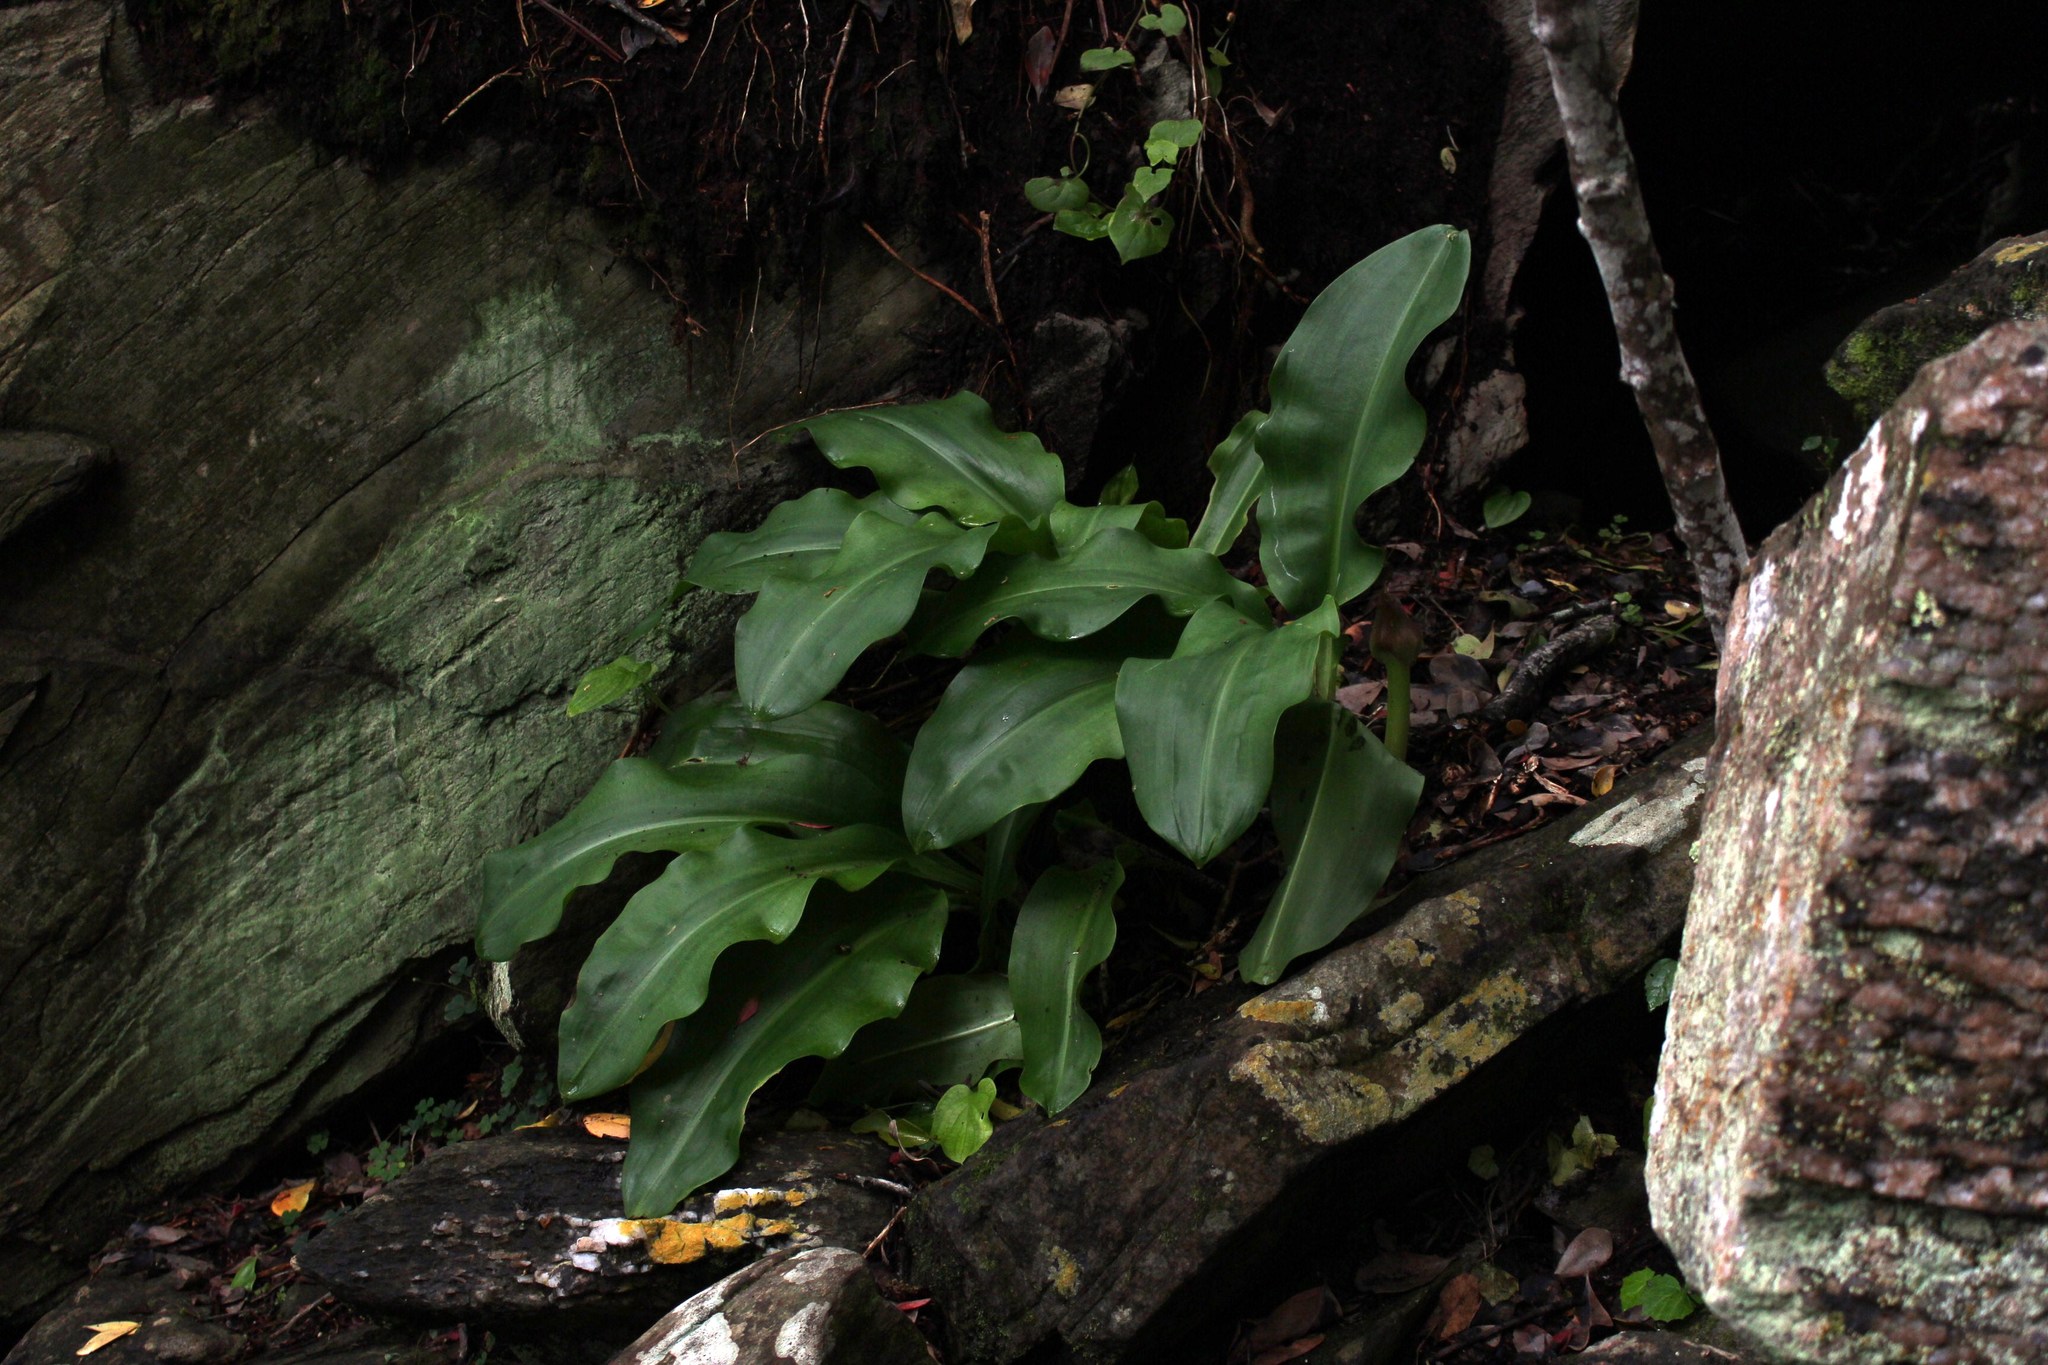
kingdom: Plantae
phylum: Tracheophyta
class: Liliopsida
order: Asparagales
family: Amaryllidaceae
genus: Scadoxus
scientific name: Scadoxus puniceus
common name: Royal-paintbrush
